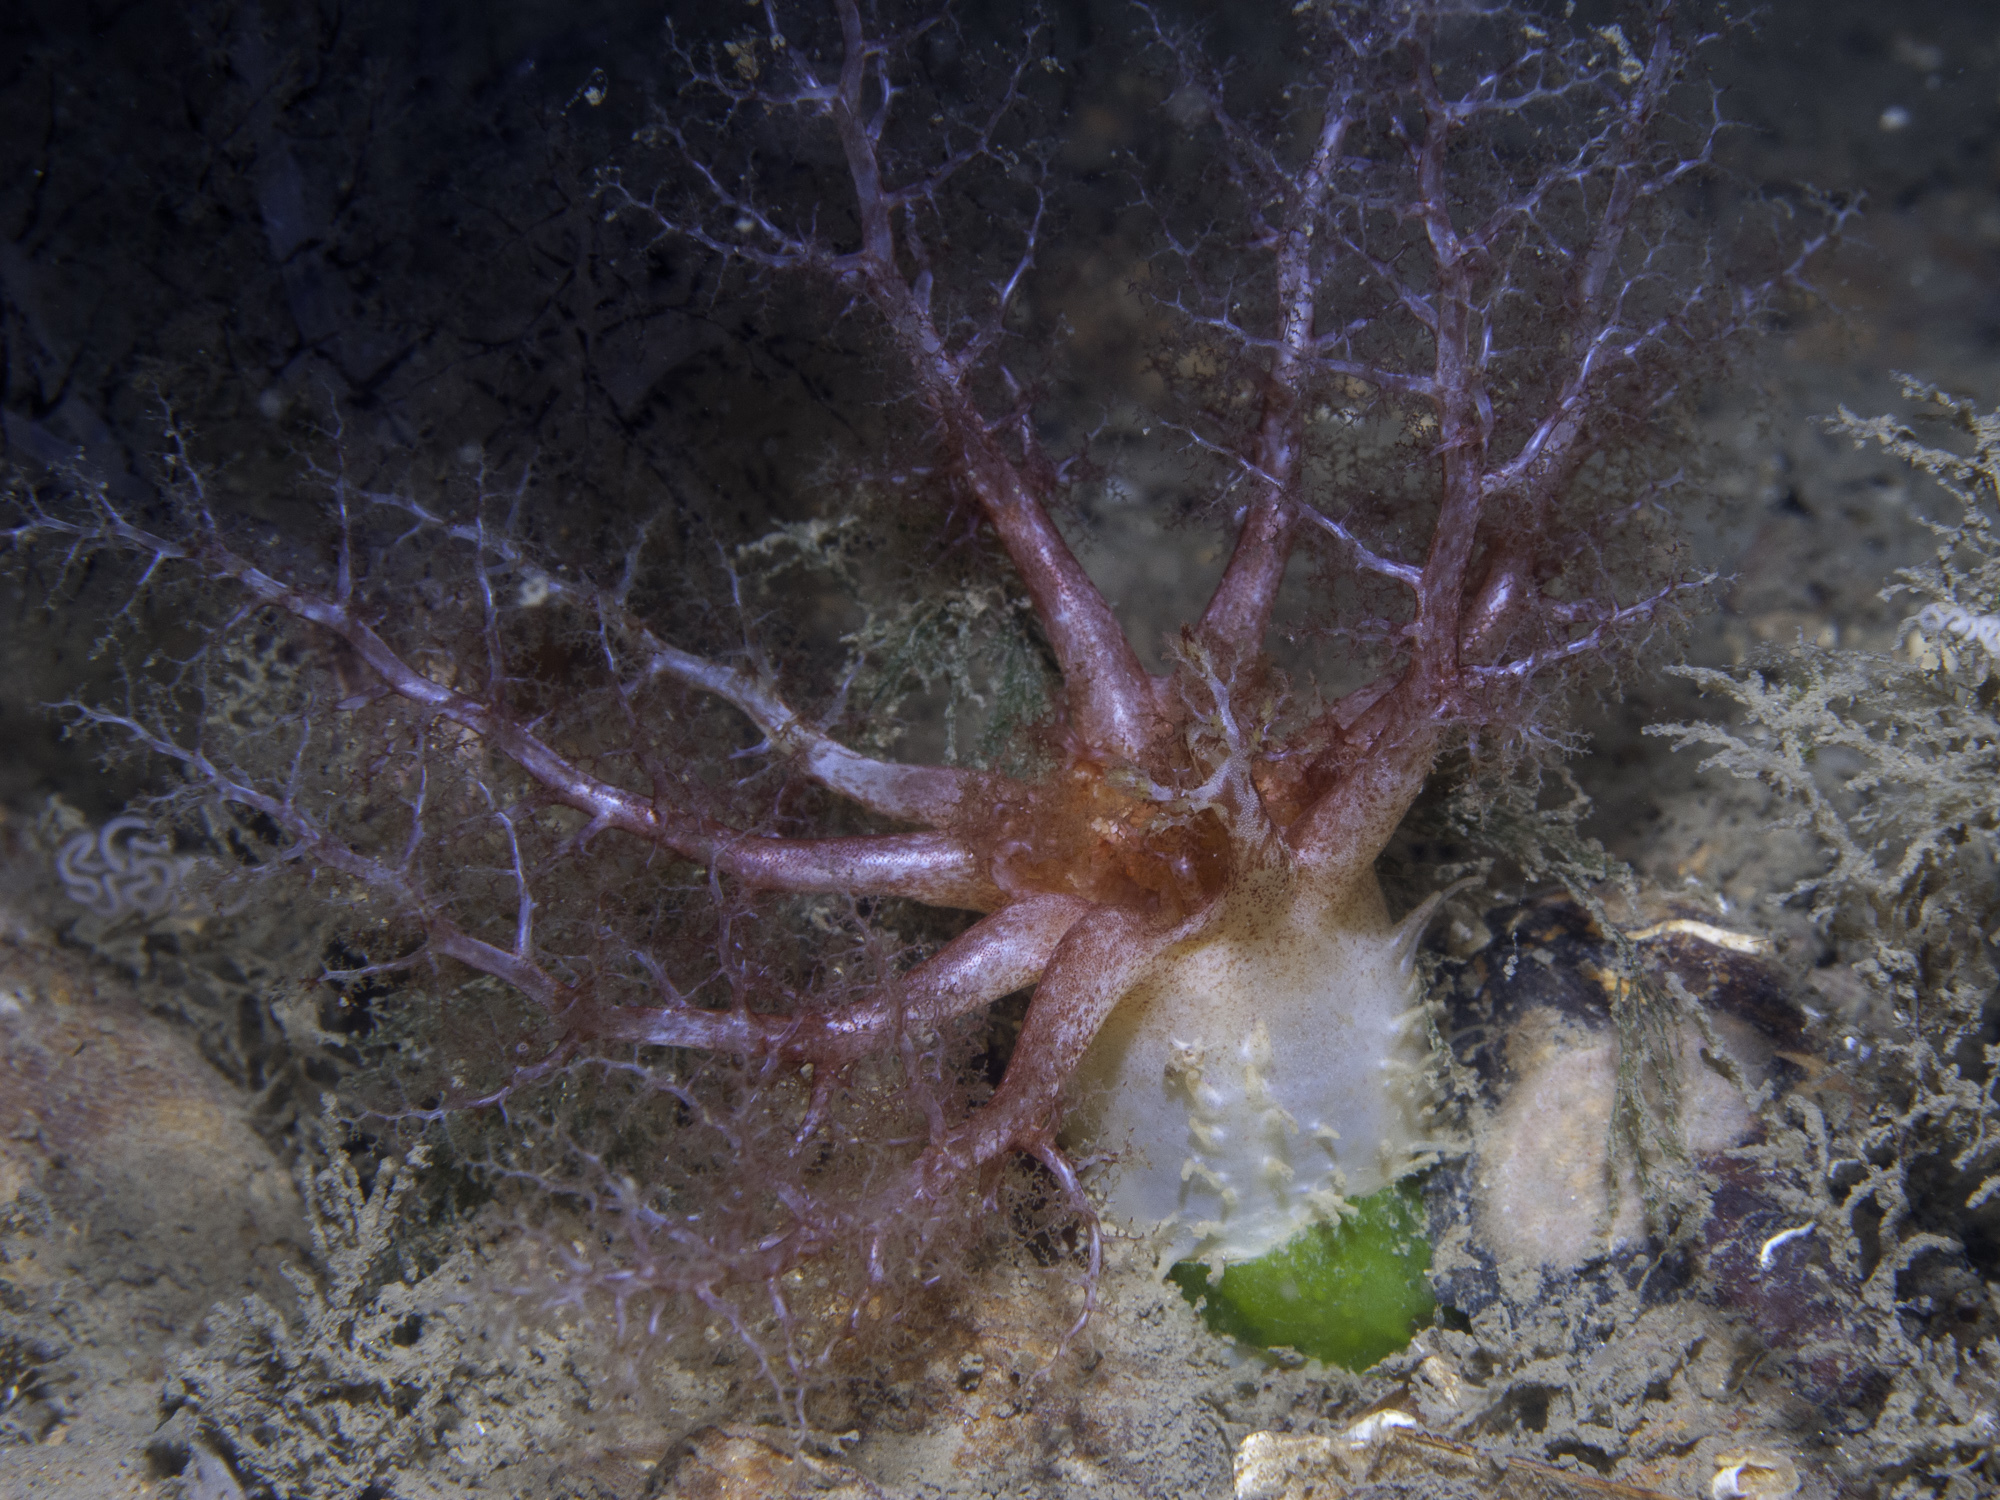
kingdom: Animalia
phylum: Echinodermata
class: Holothuroidea
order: Dendrochirotida
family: Cucumariidae
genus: Thyonidium
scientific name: Thyonidium drummondii
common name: Drummond's sea cucumber
